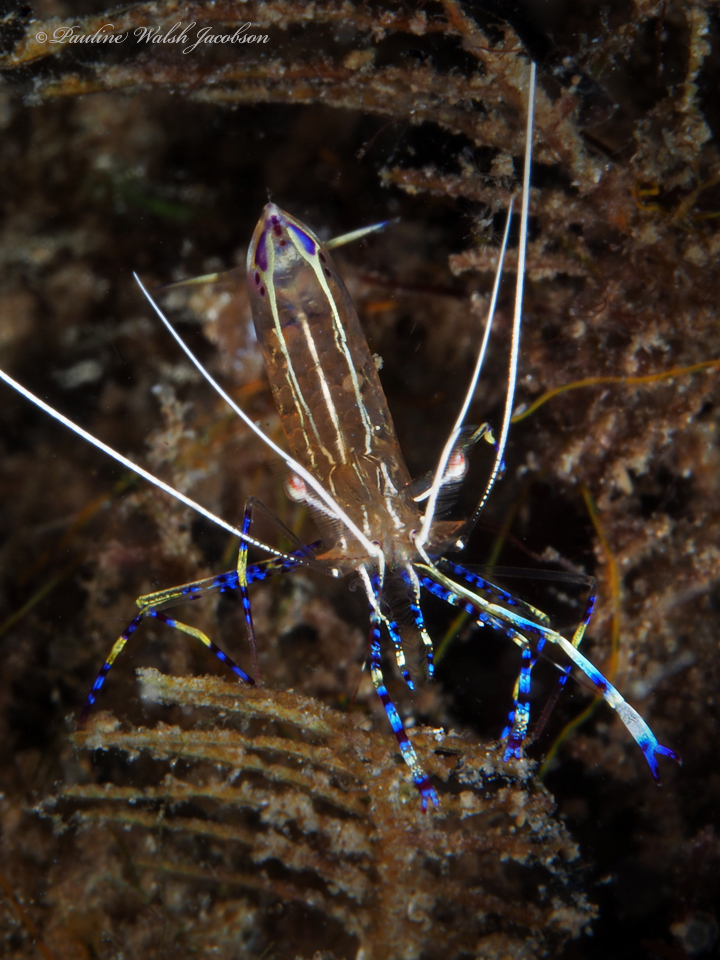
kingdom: Animalia
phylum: Arthropoda
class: Malacostraca
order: Decapoda
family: Palaemonidae
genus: Ancylomenes
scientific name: Ancylomenes pedersoni
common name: Pederson's cleaning shrimp
